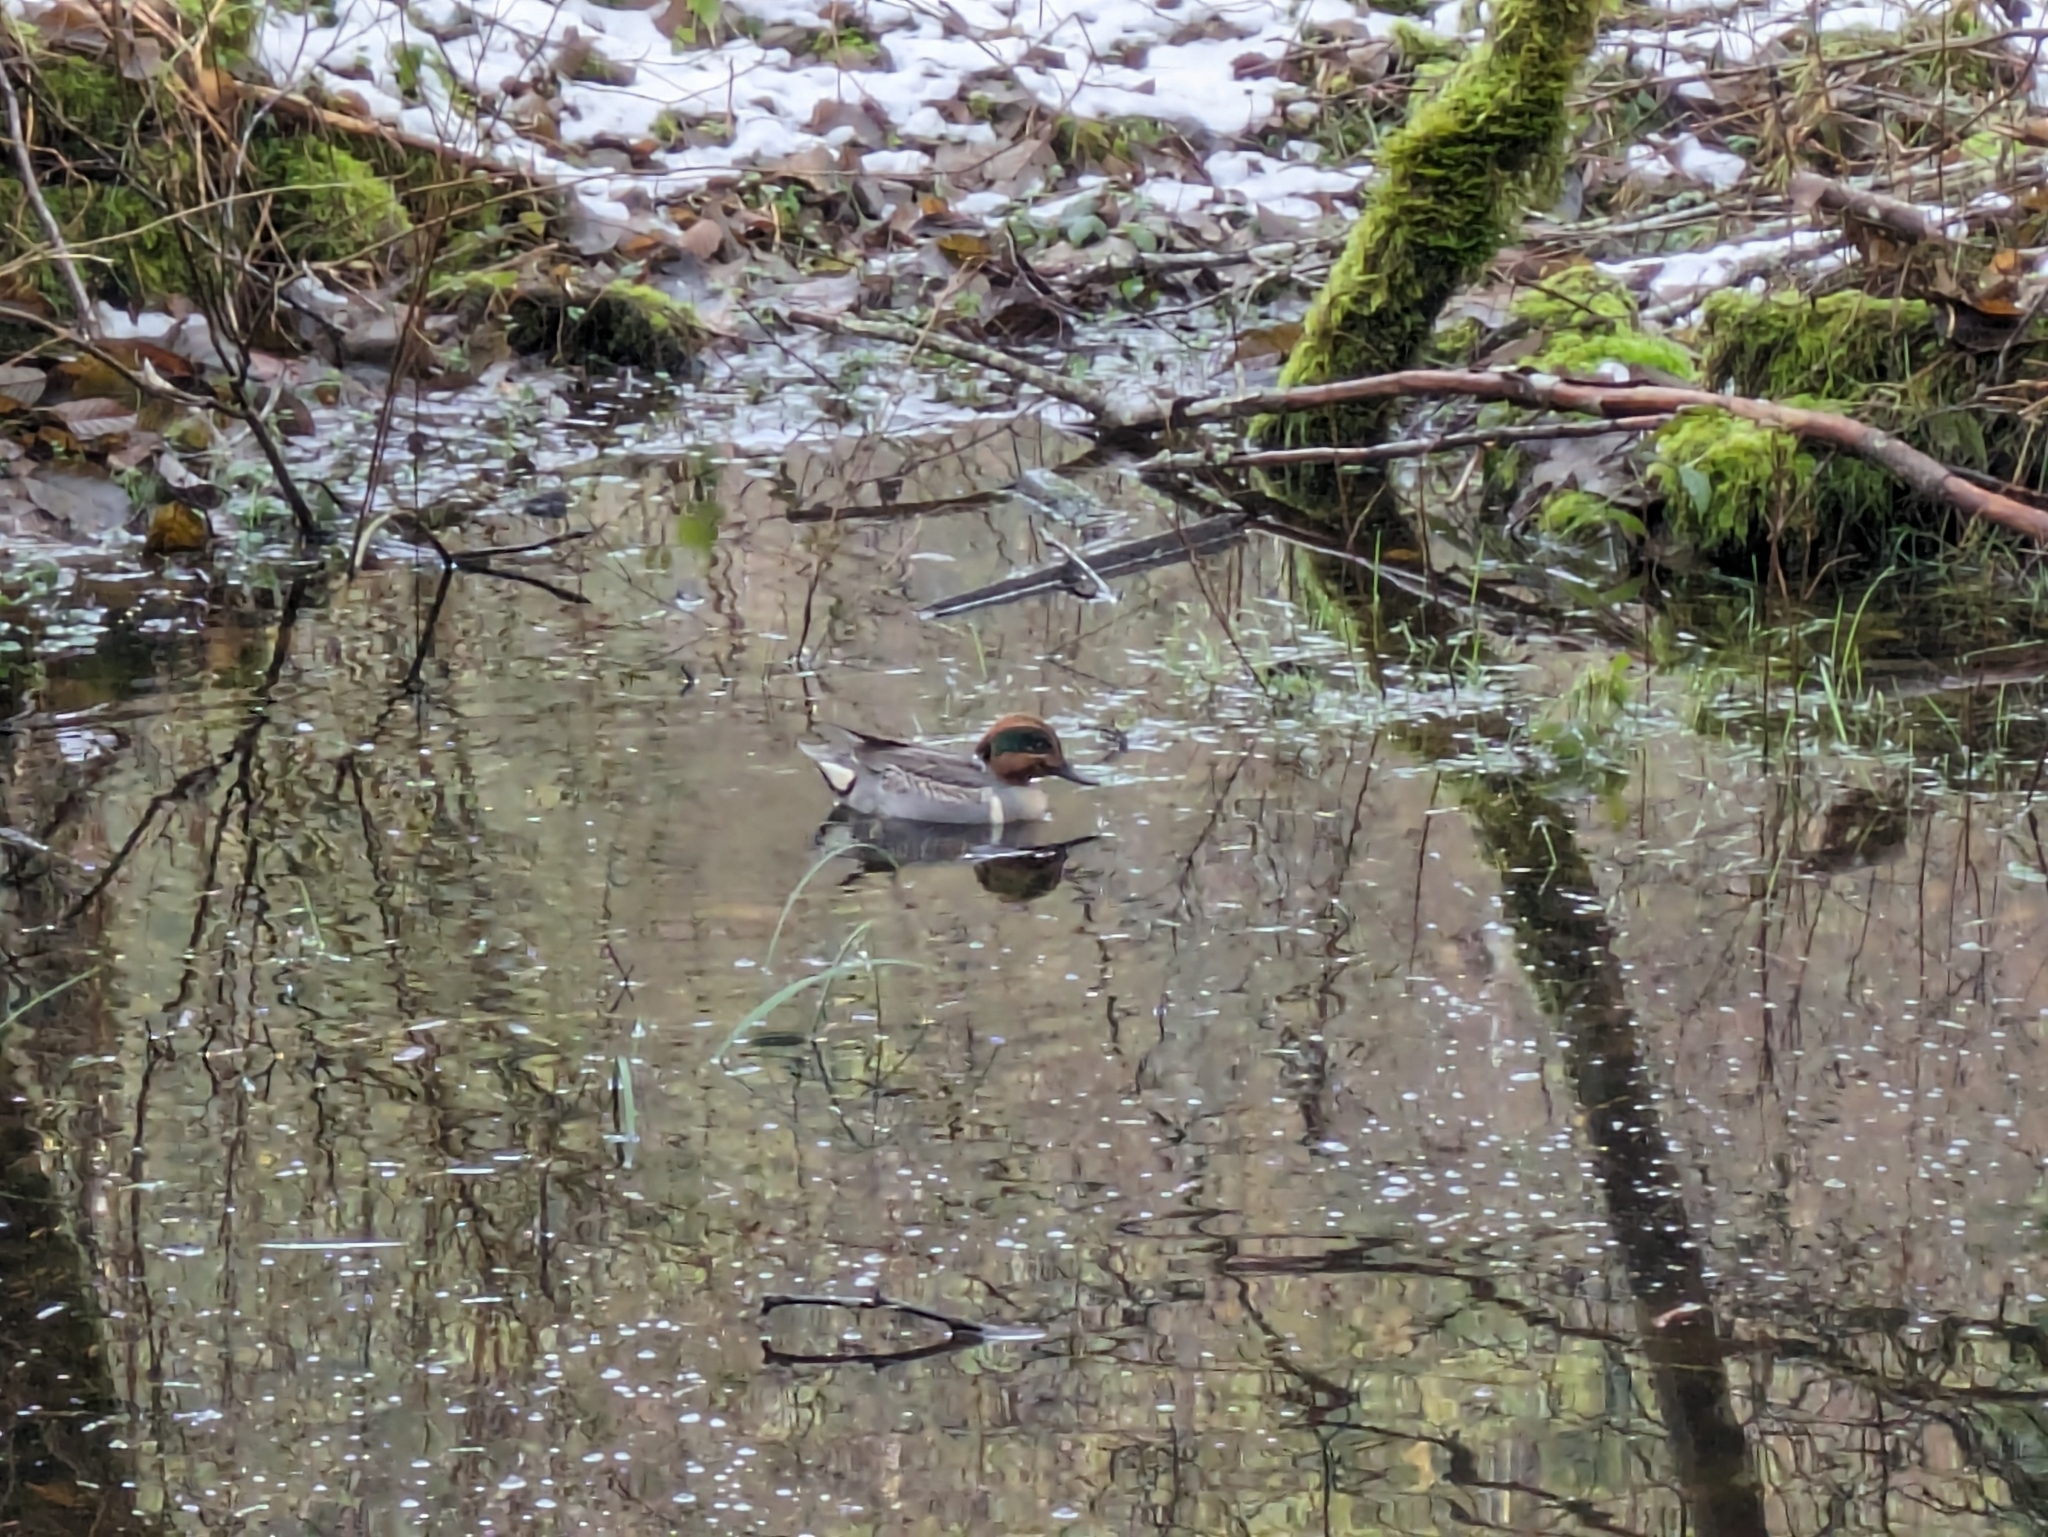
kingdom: Animalia
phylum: Chordata
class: Aves
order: Anseriformes
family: Anatidae
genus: Anas
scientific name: Anas crecca
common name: Eurasian teal
